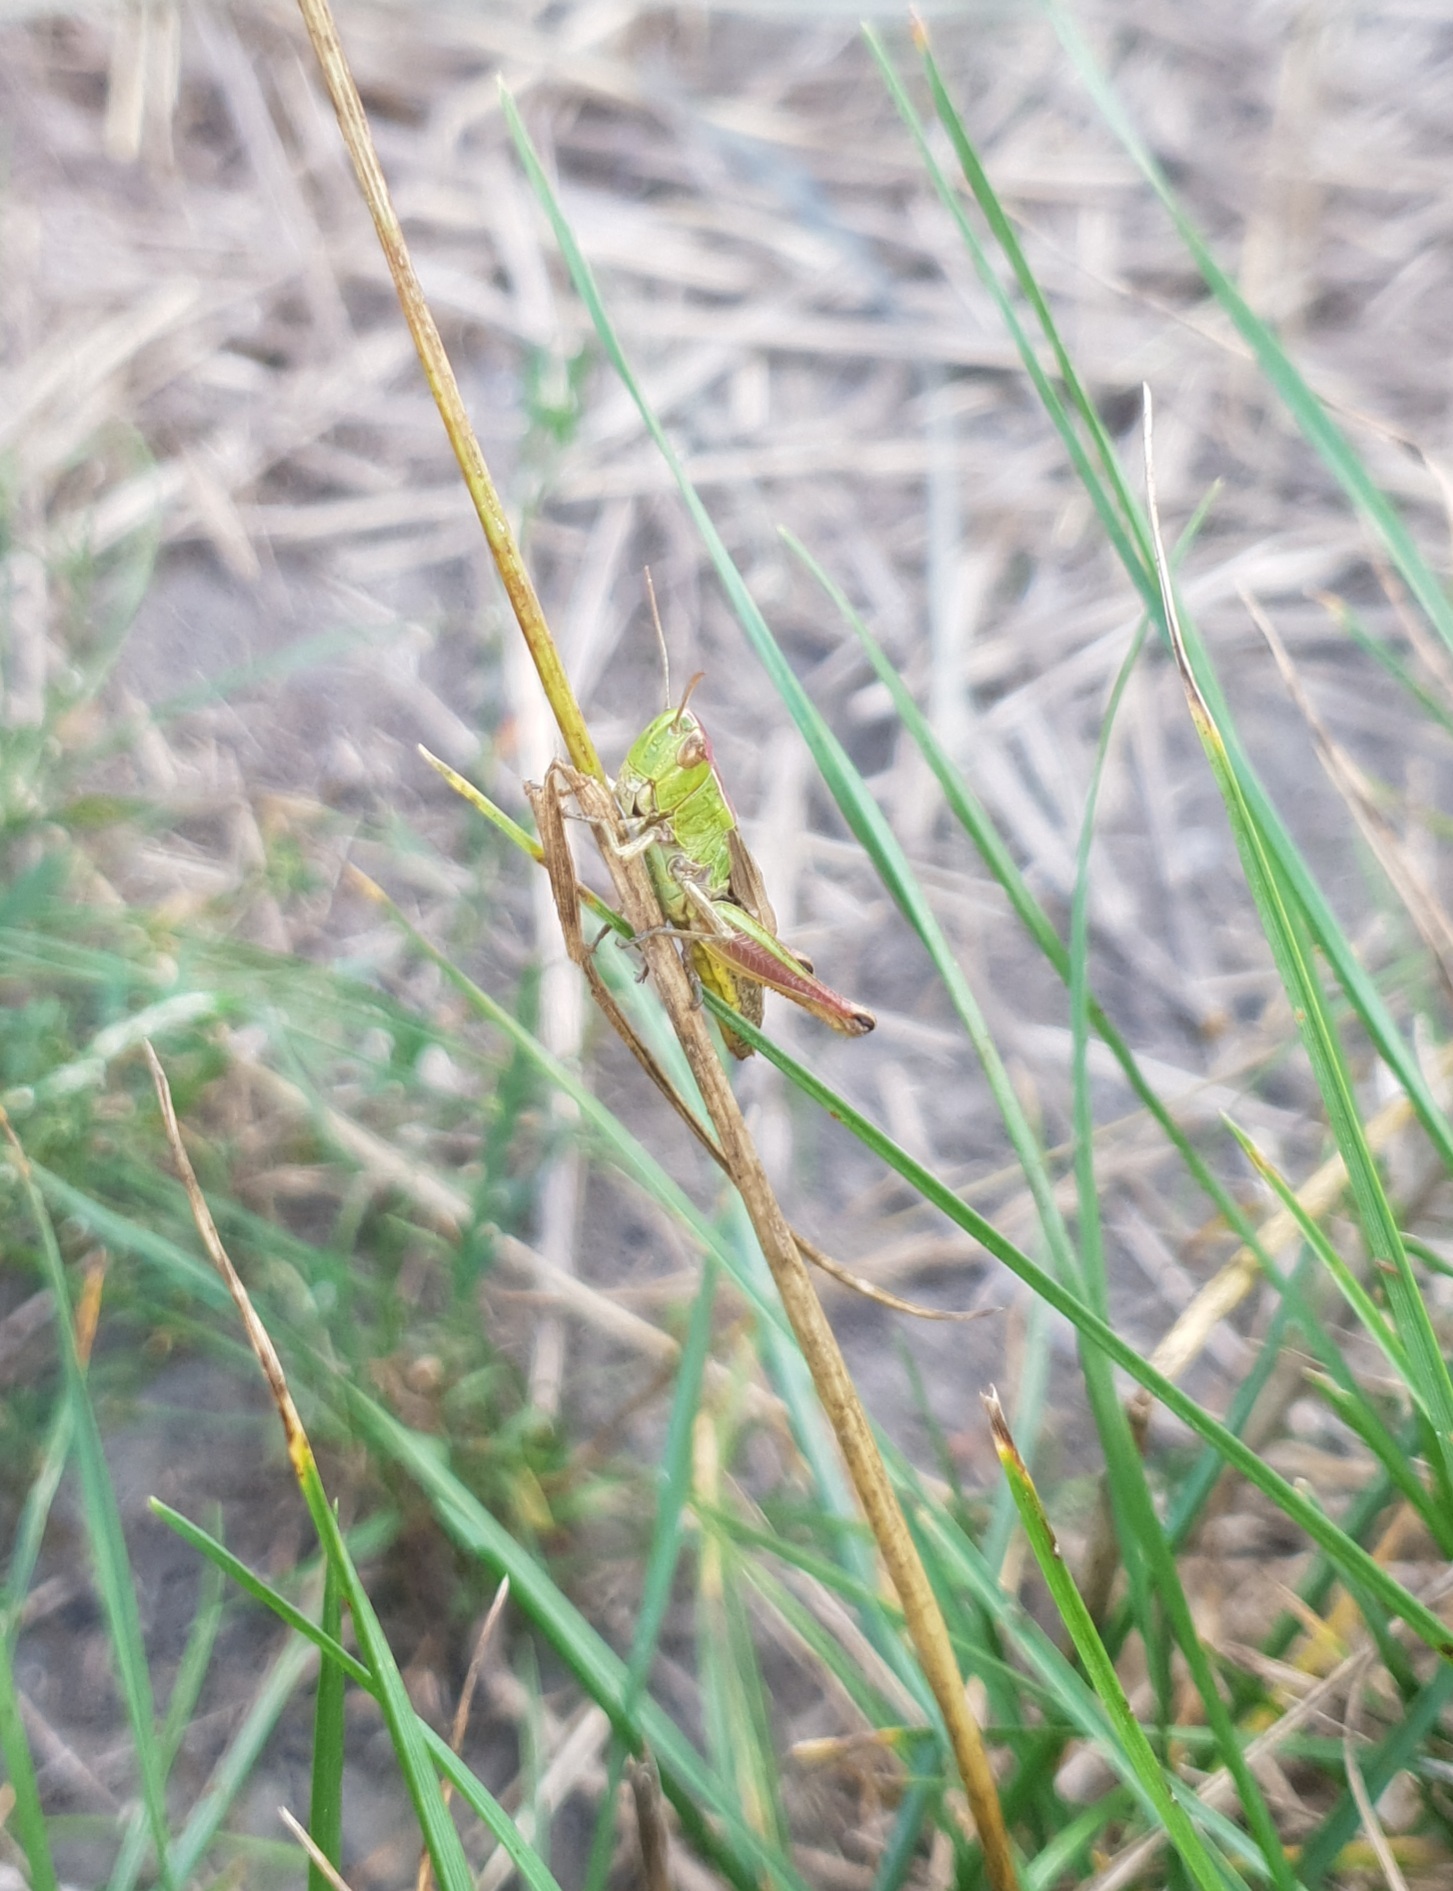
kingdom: Animalia
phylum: Arthropoda
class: Insecta
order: Orthoptera
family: Acrididae
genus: Pseudochorthippus
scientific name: Pseudochorthippus parallelus
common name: Meadow grasshopper
